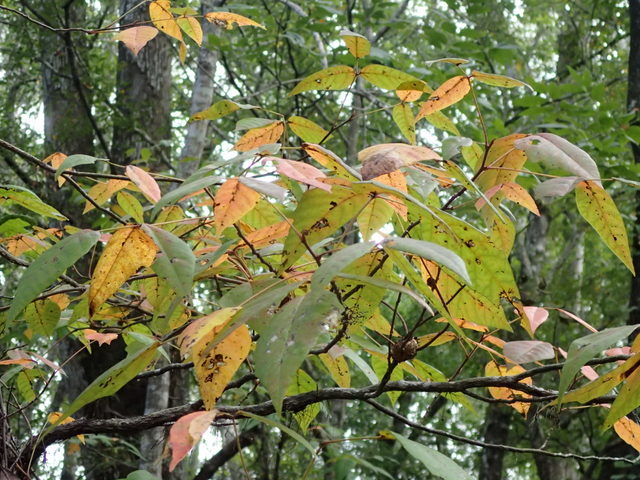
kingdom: Plantae
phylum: Tracheophyta
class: Magnoliopsida
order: Sapindales
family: Anacardiaceae
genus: Toxicodendron
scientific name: Toxicodendron radicans
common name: Poison ivy
